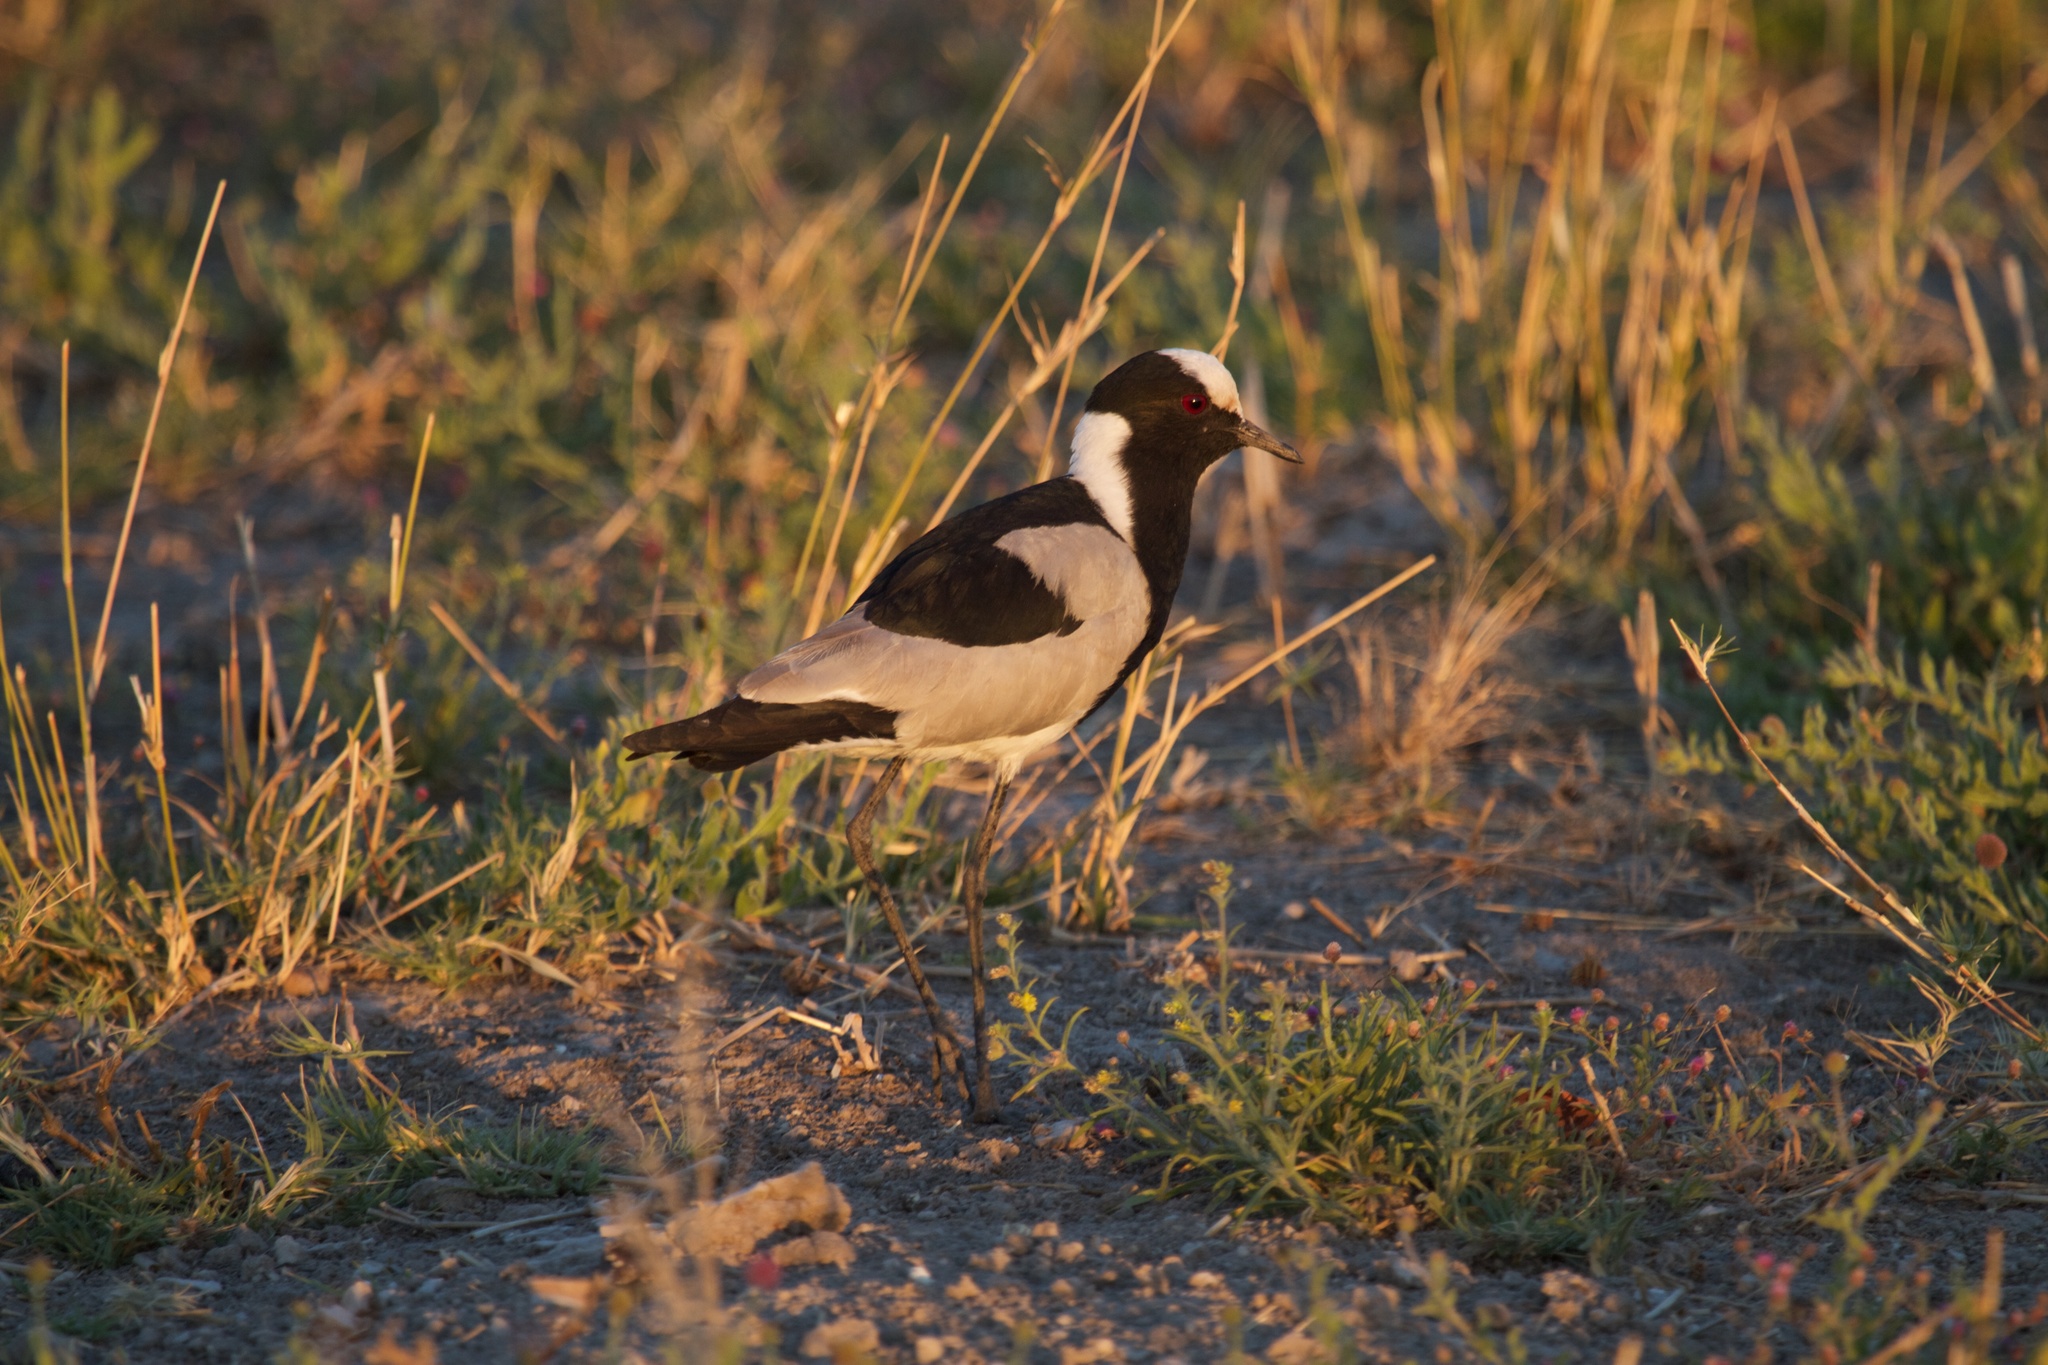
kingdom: Animalia
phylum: Chordata
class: Aves
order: Charadriiformes
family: Charadriidae
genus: Vanellus
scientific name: Vanellus armatus
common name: Blacksmith lapwing
